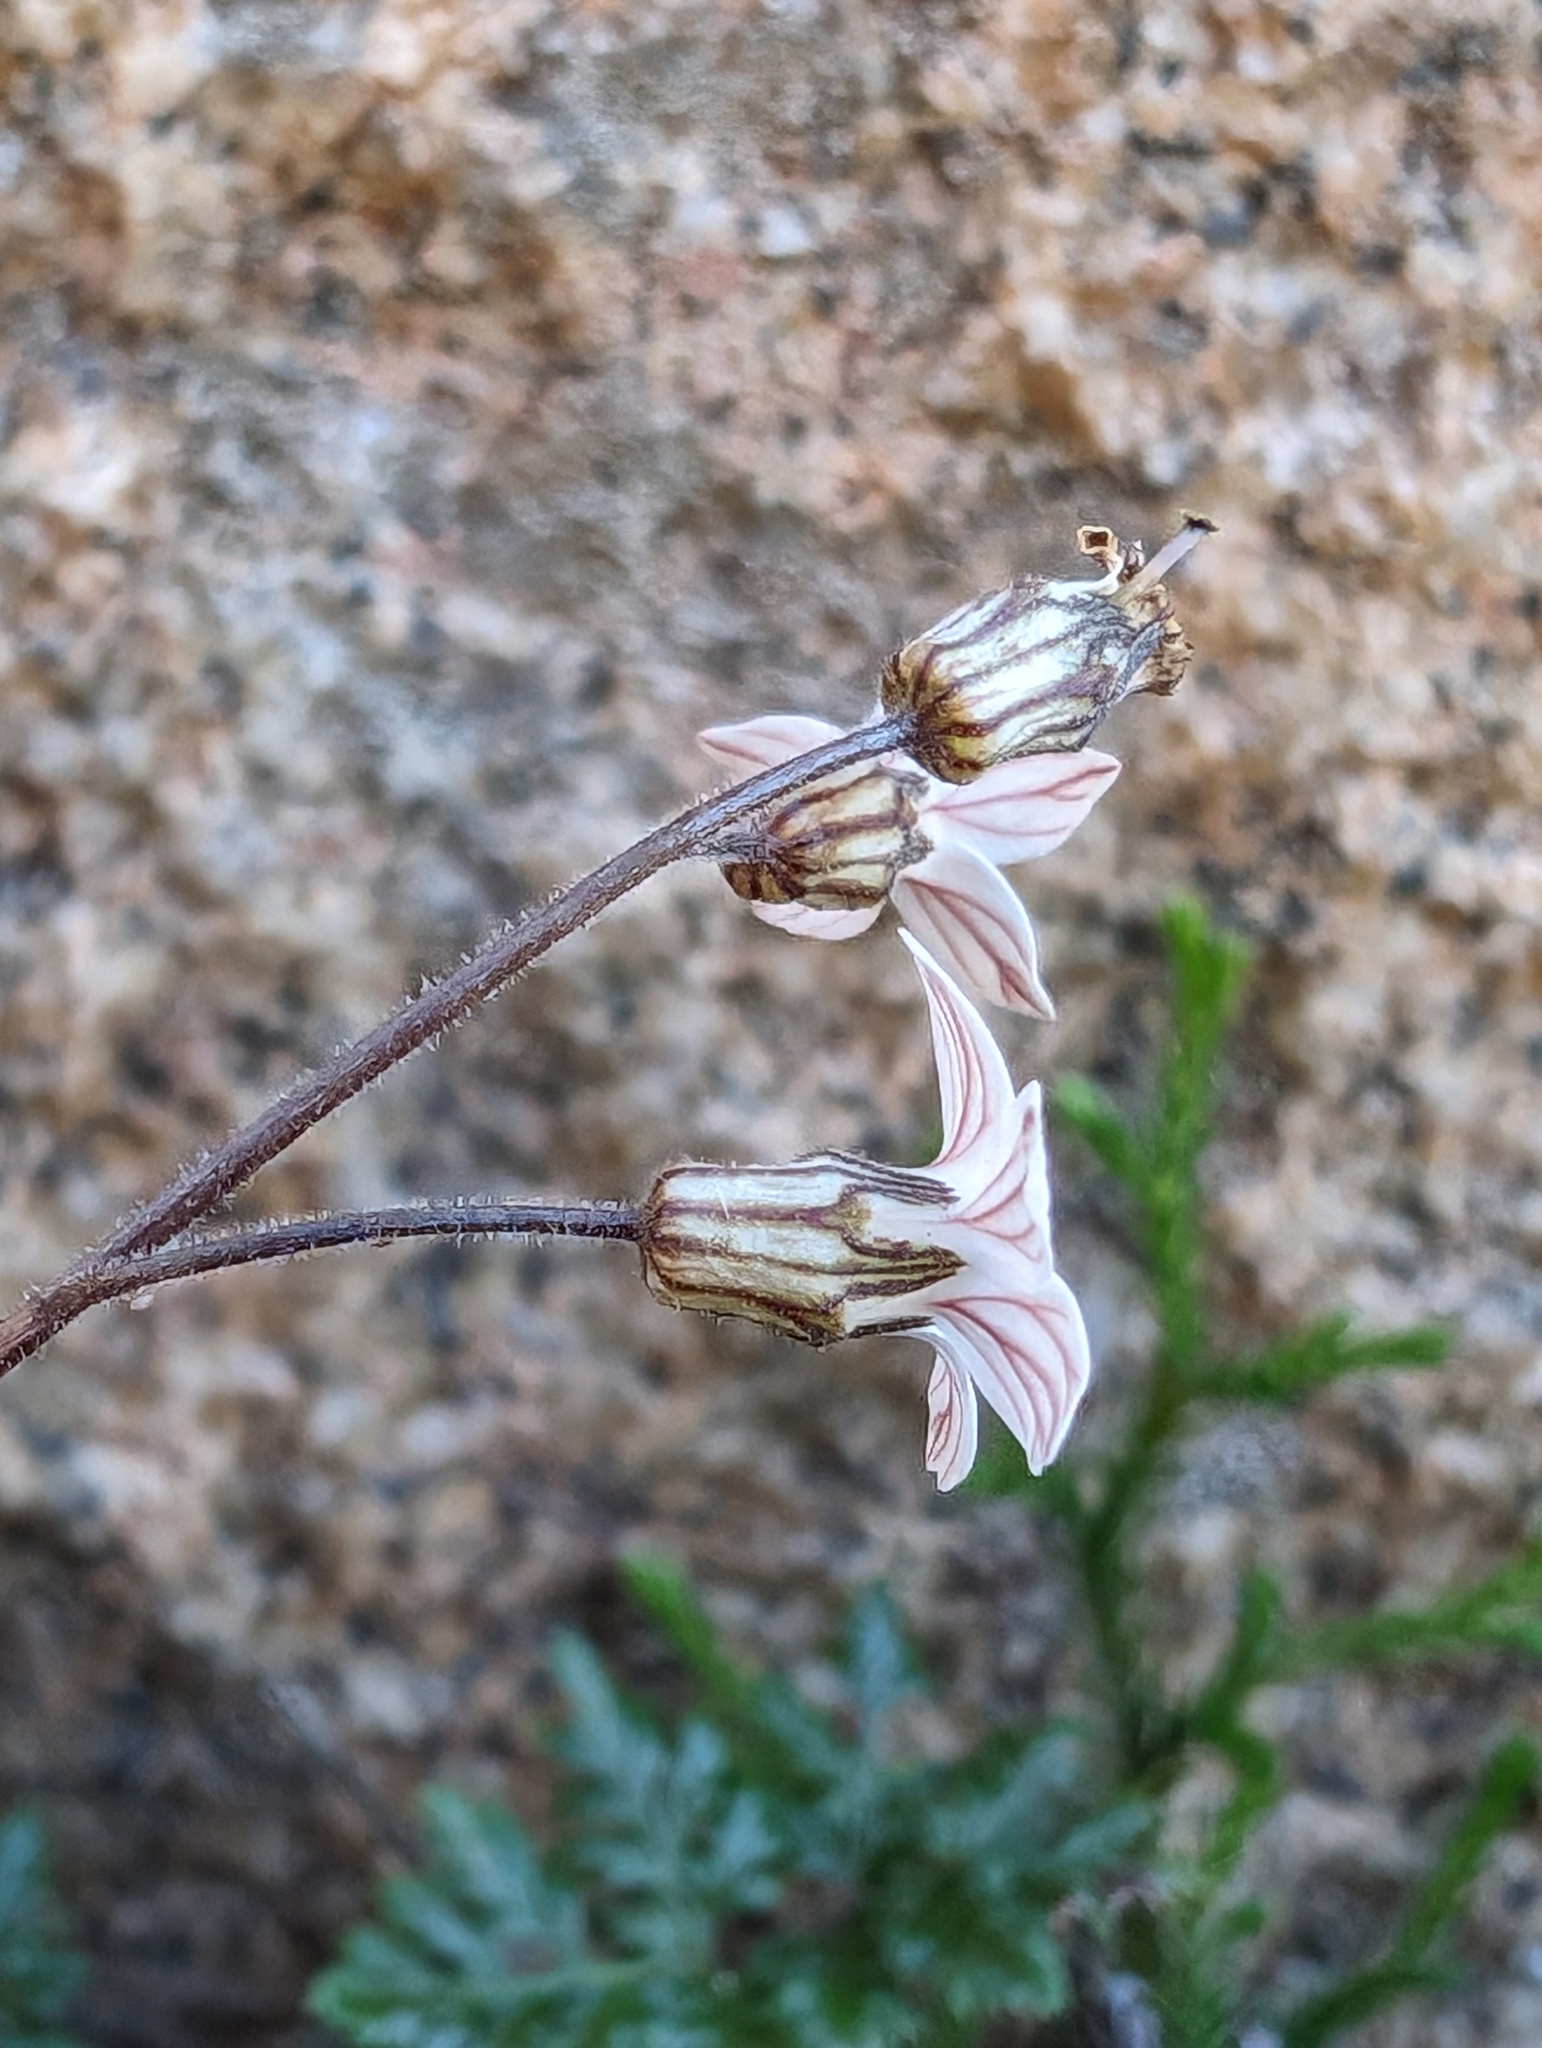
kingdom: Plantae
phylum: Tracheophyta
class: Magnoliopsida
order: Saxifragales
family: Saxifragaceae
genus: Jepsonia
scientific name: Jepsonia parryi
